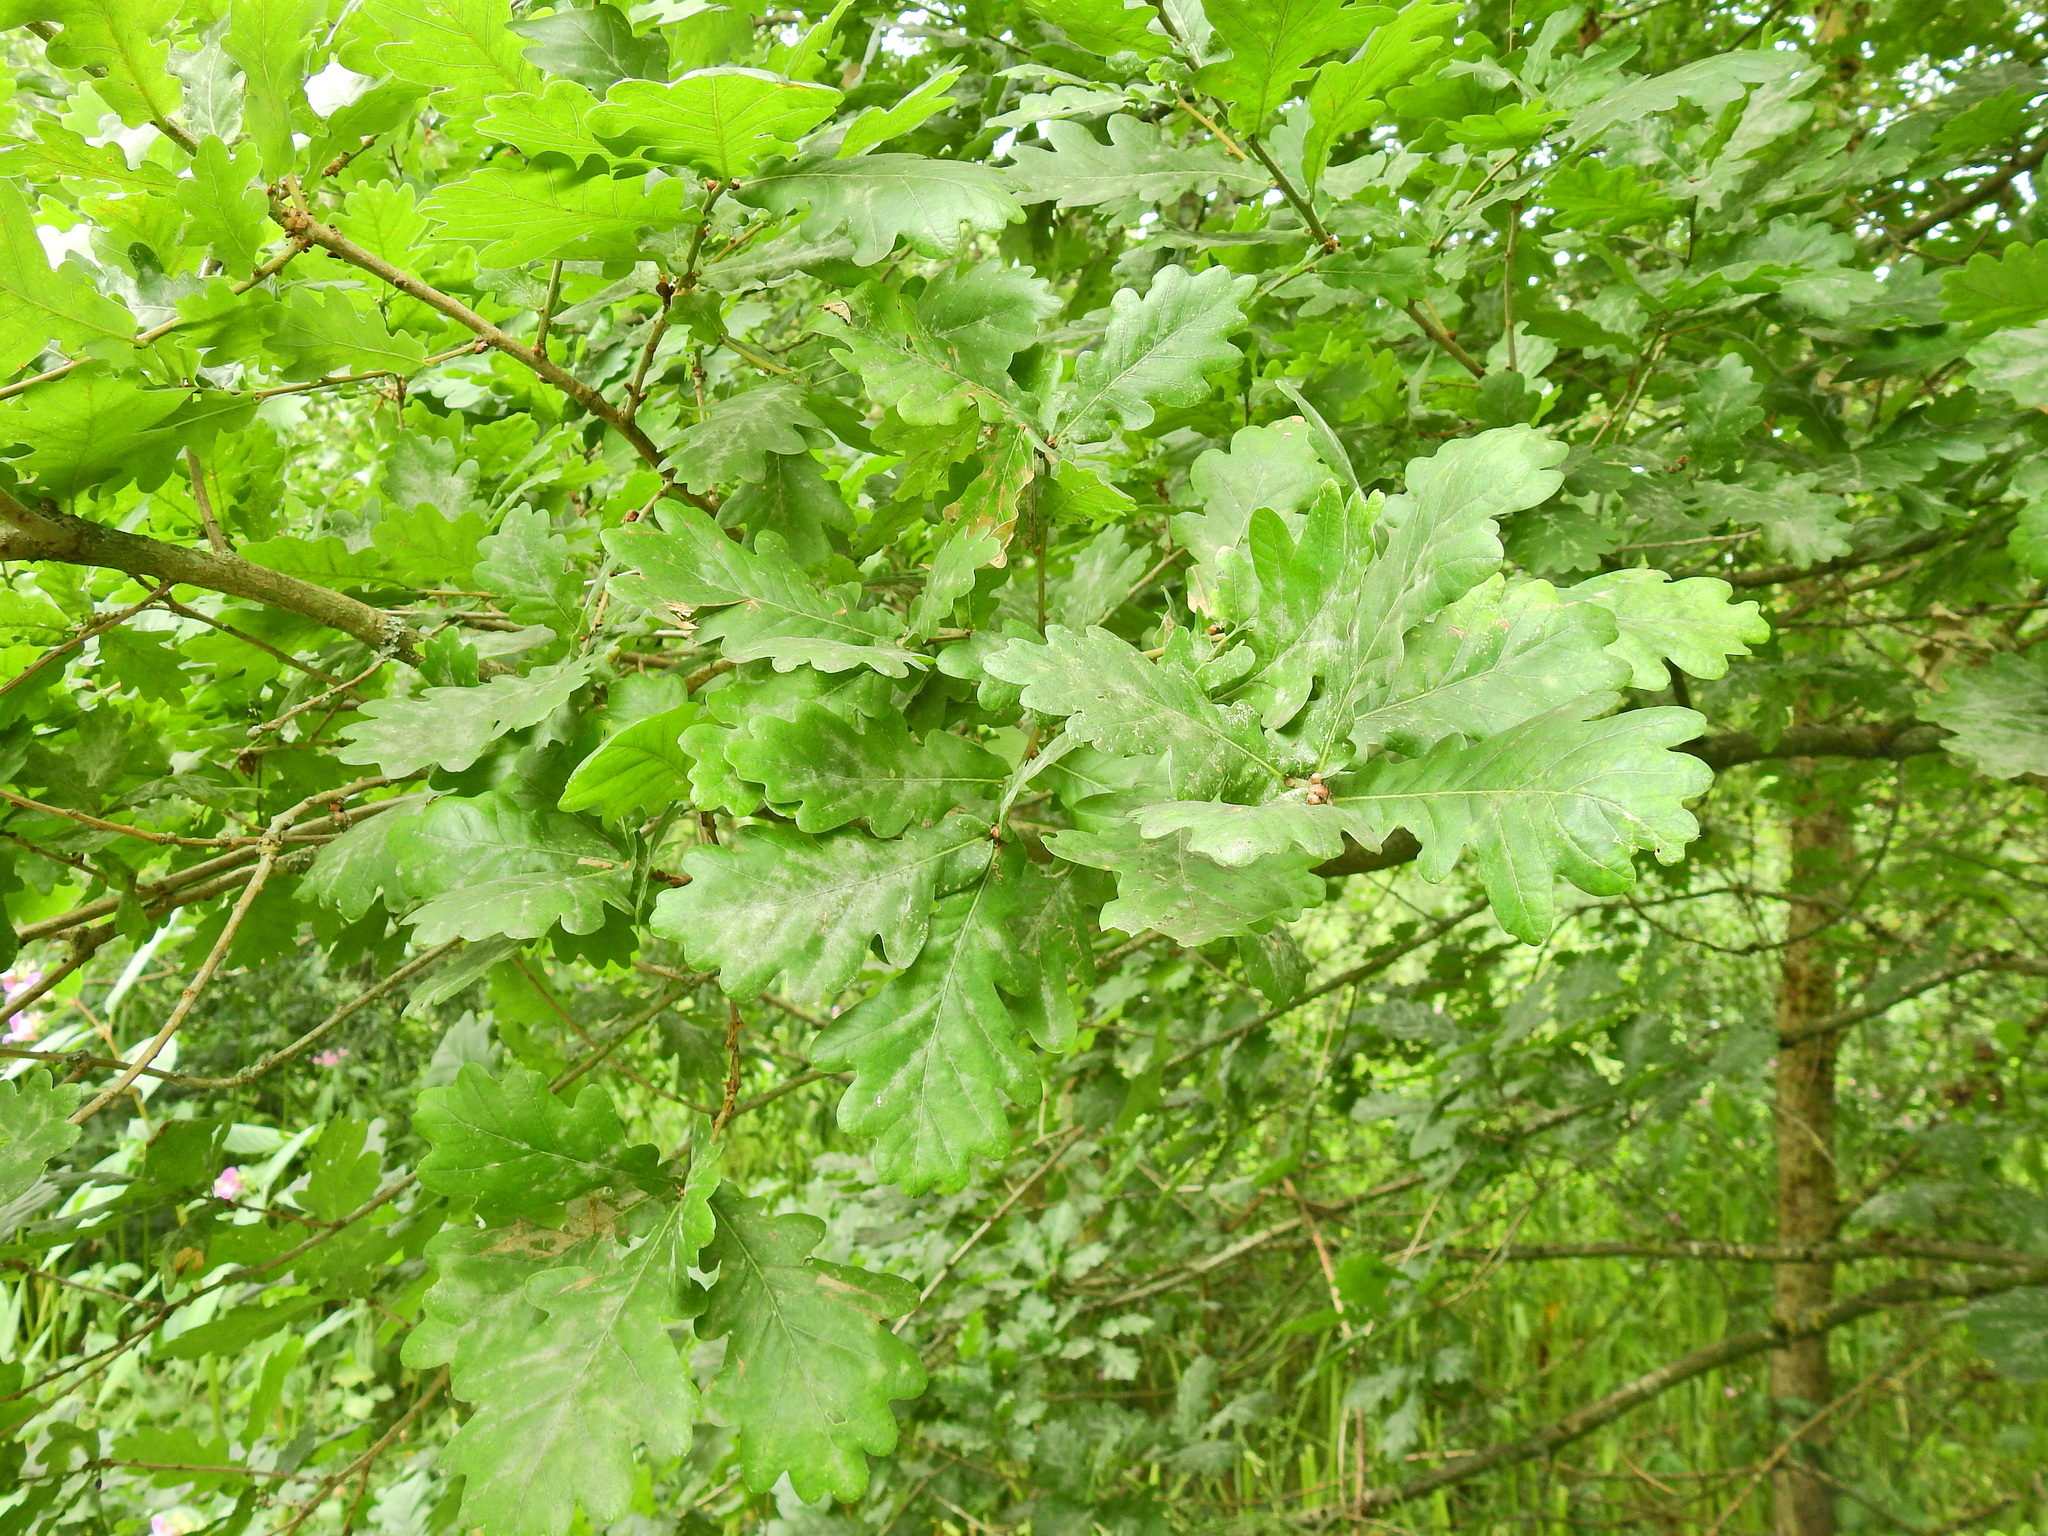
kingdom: Plantae
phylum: Tracheophyta
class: Magnoliopsida
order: Fagales
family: Fagaceae
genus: Quercus
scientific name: Quercus robur
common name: Pedunculate oak
